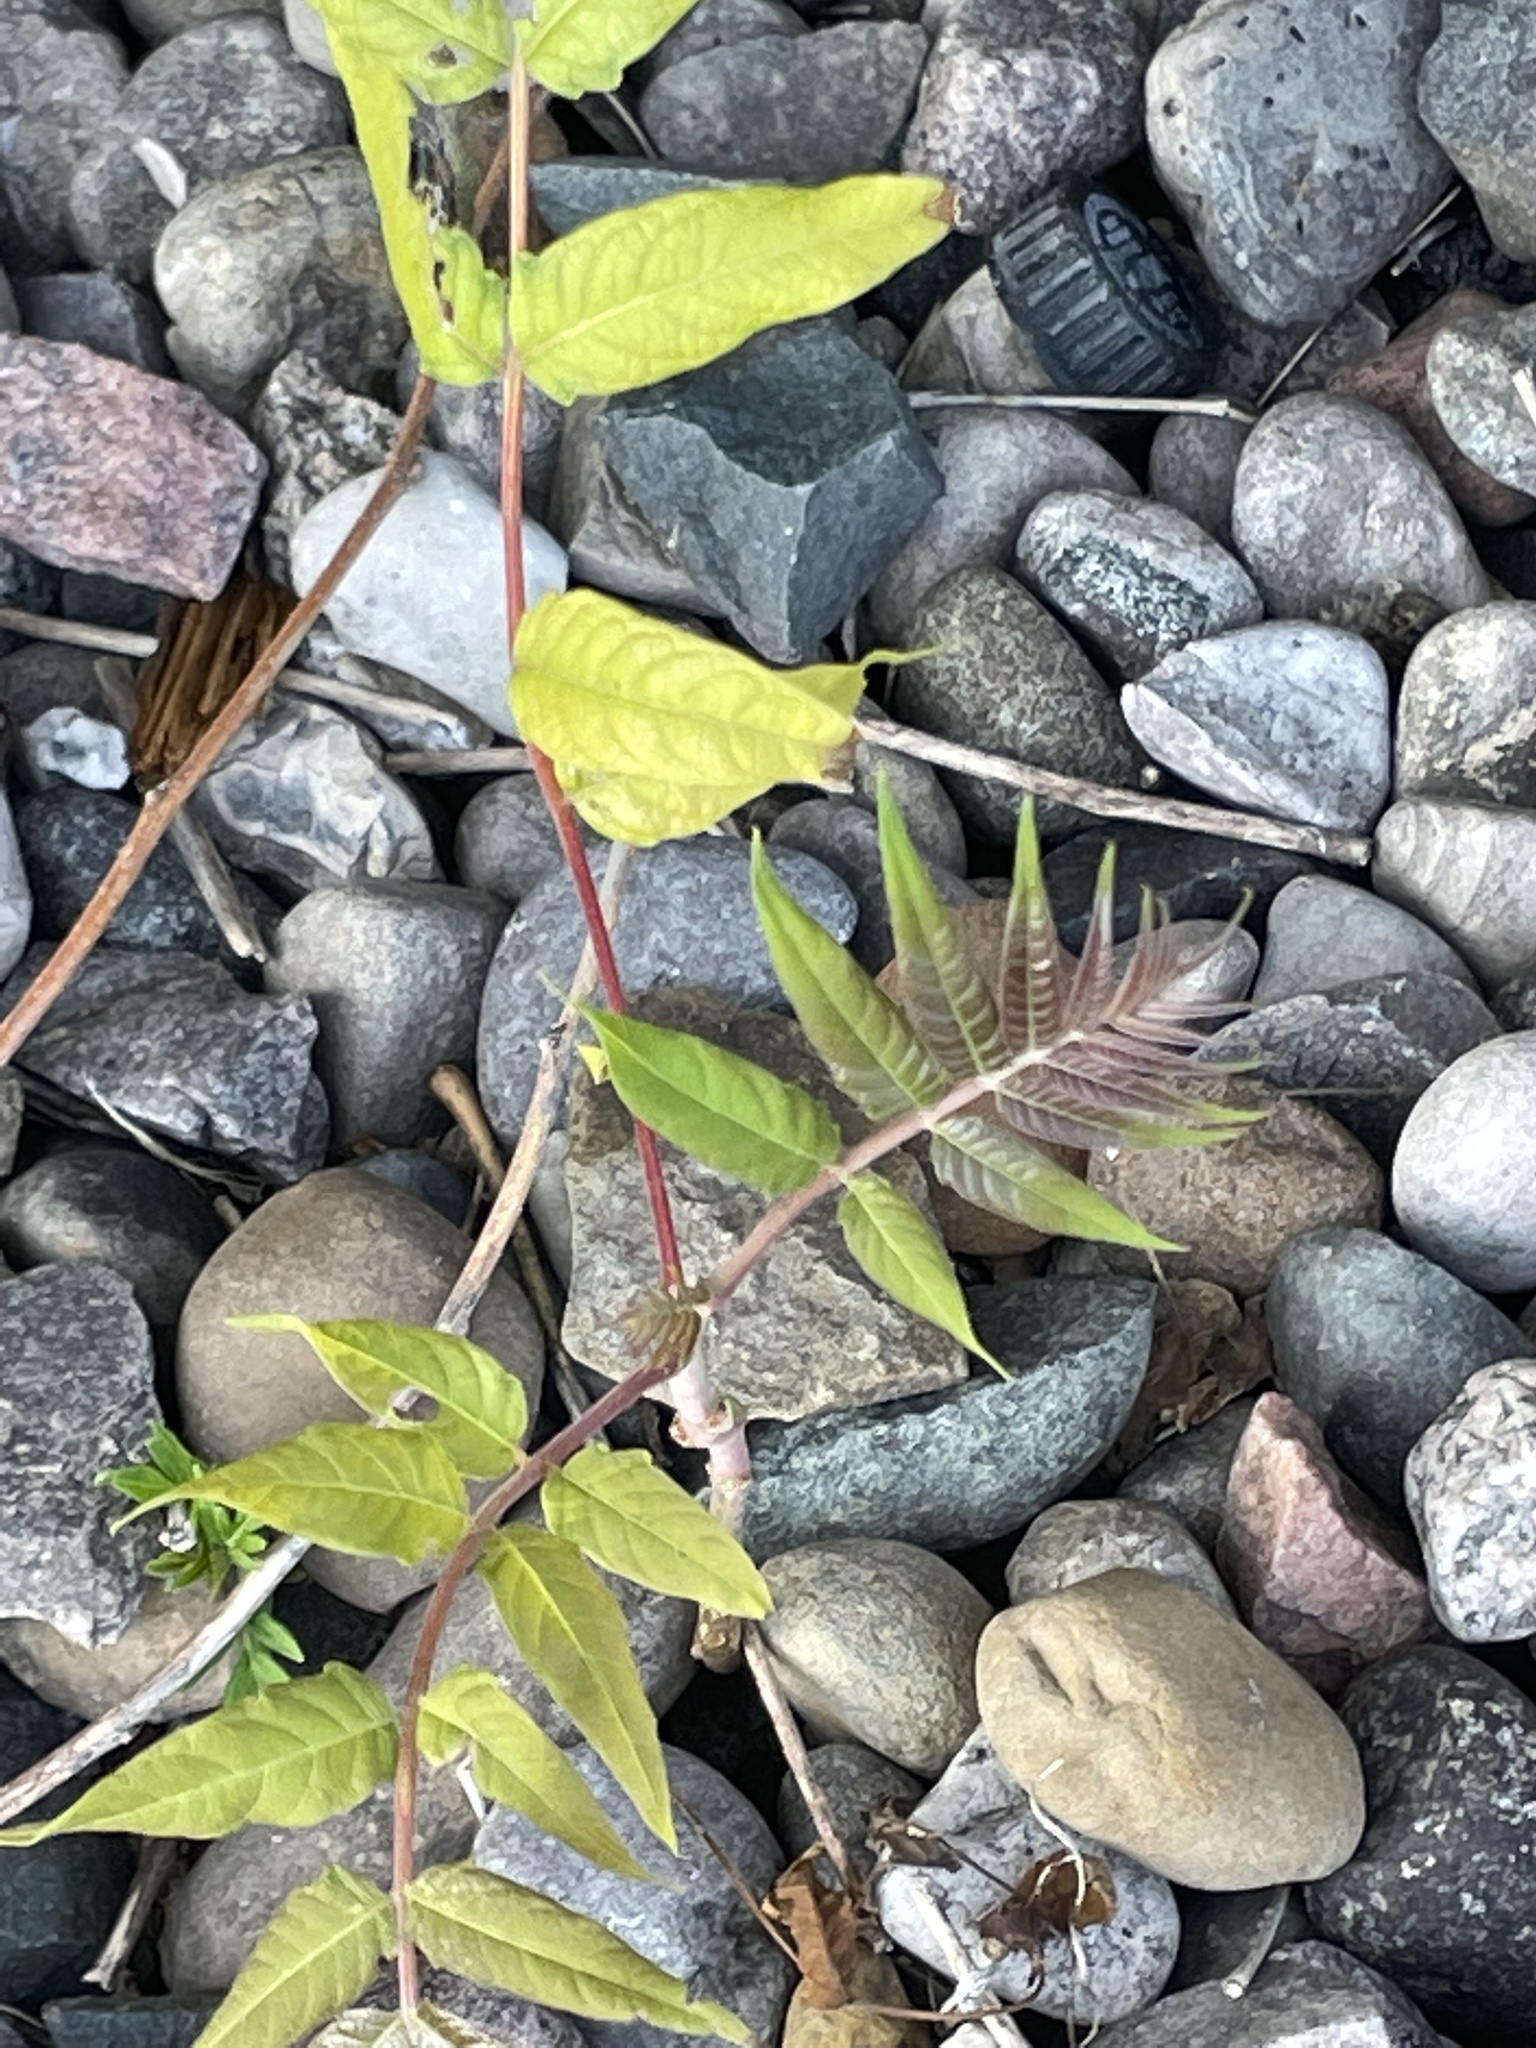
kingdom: Plantae
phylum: Tracheophyta
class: Magnoliopsida
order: Sapindales
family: Simaroubaceae
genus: Ailanthus
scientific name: Ailanthus altissima
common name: Tree-of-heaven
